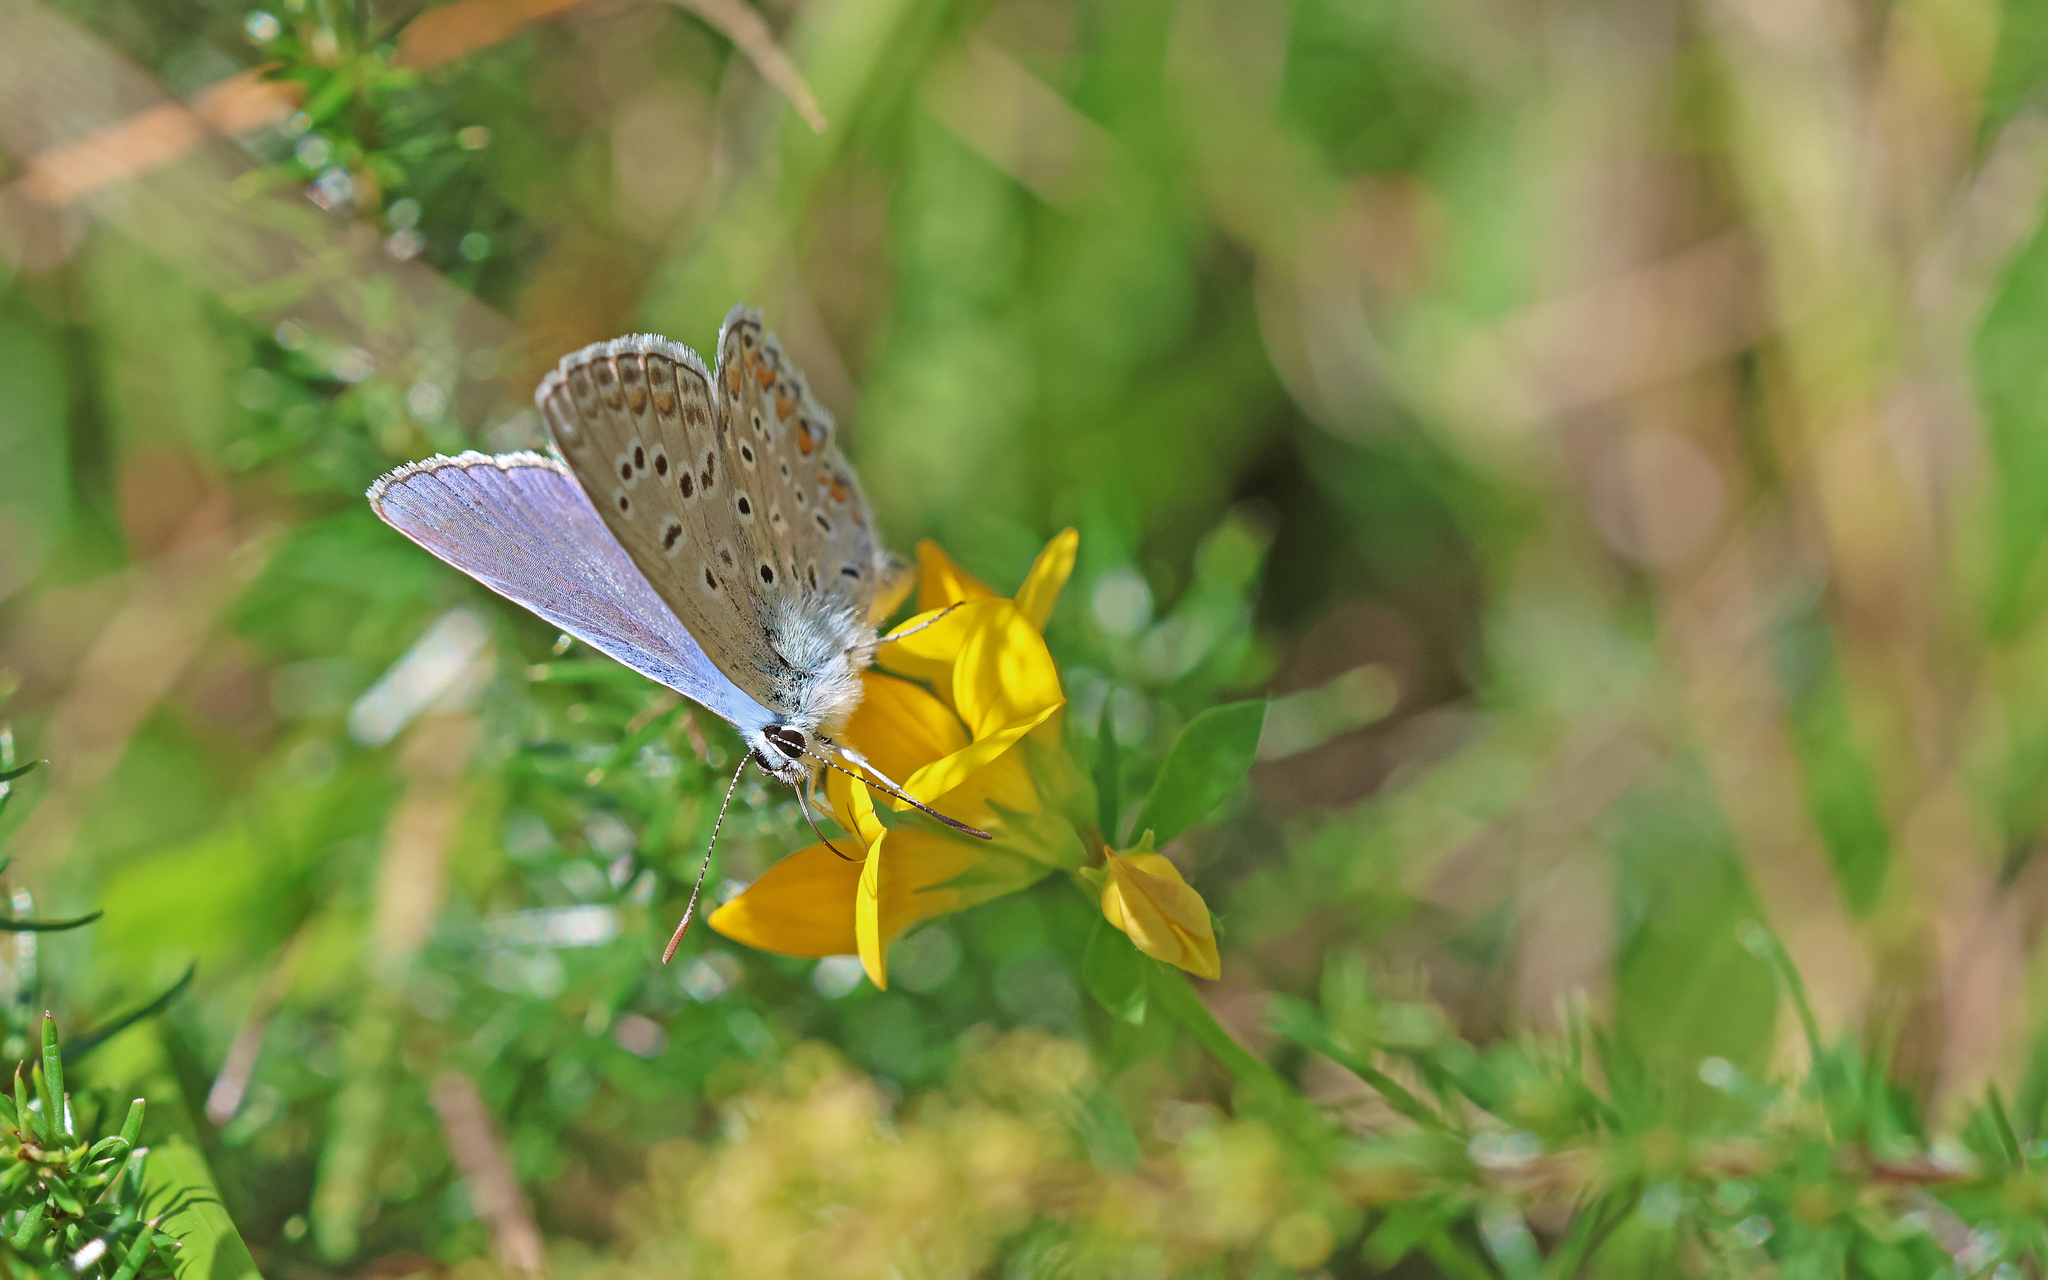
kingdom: Animalia
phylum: Arthropoda
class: Insecta
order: Lepidoptera
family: Lycaenidae
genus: Polyommatus
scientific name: Polyommatus icarus
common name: Common blue
